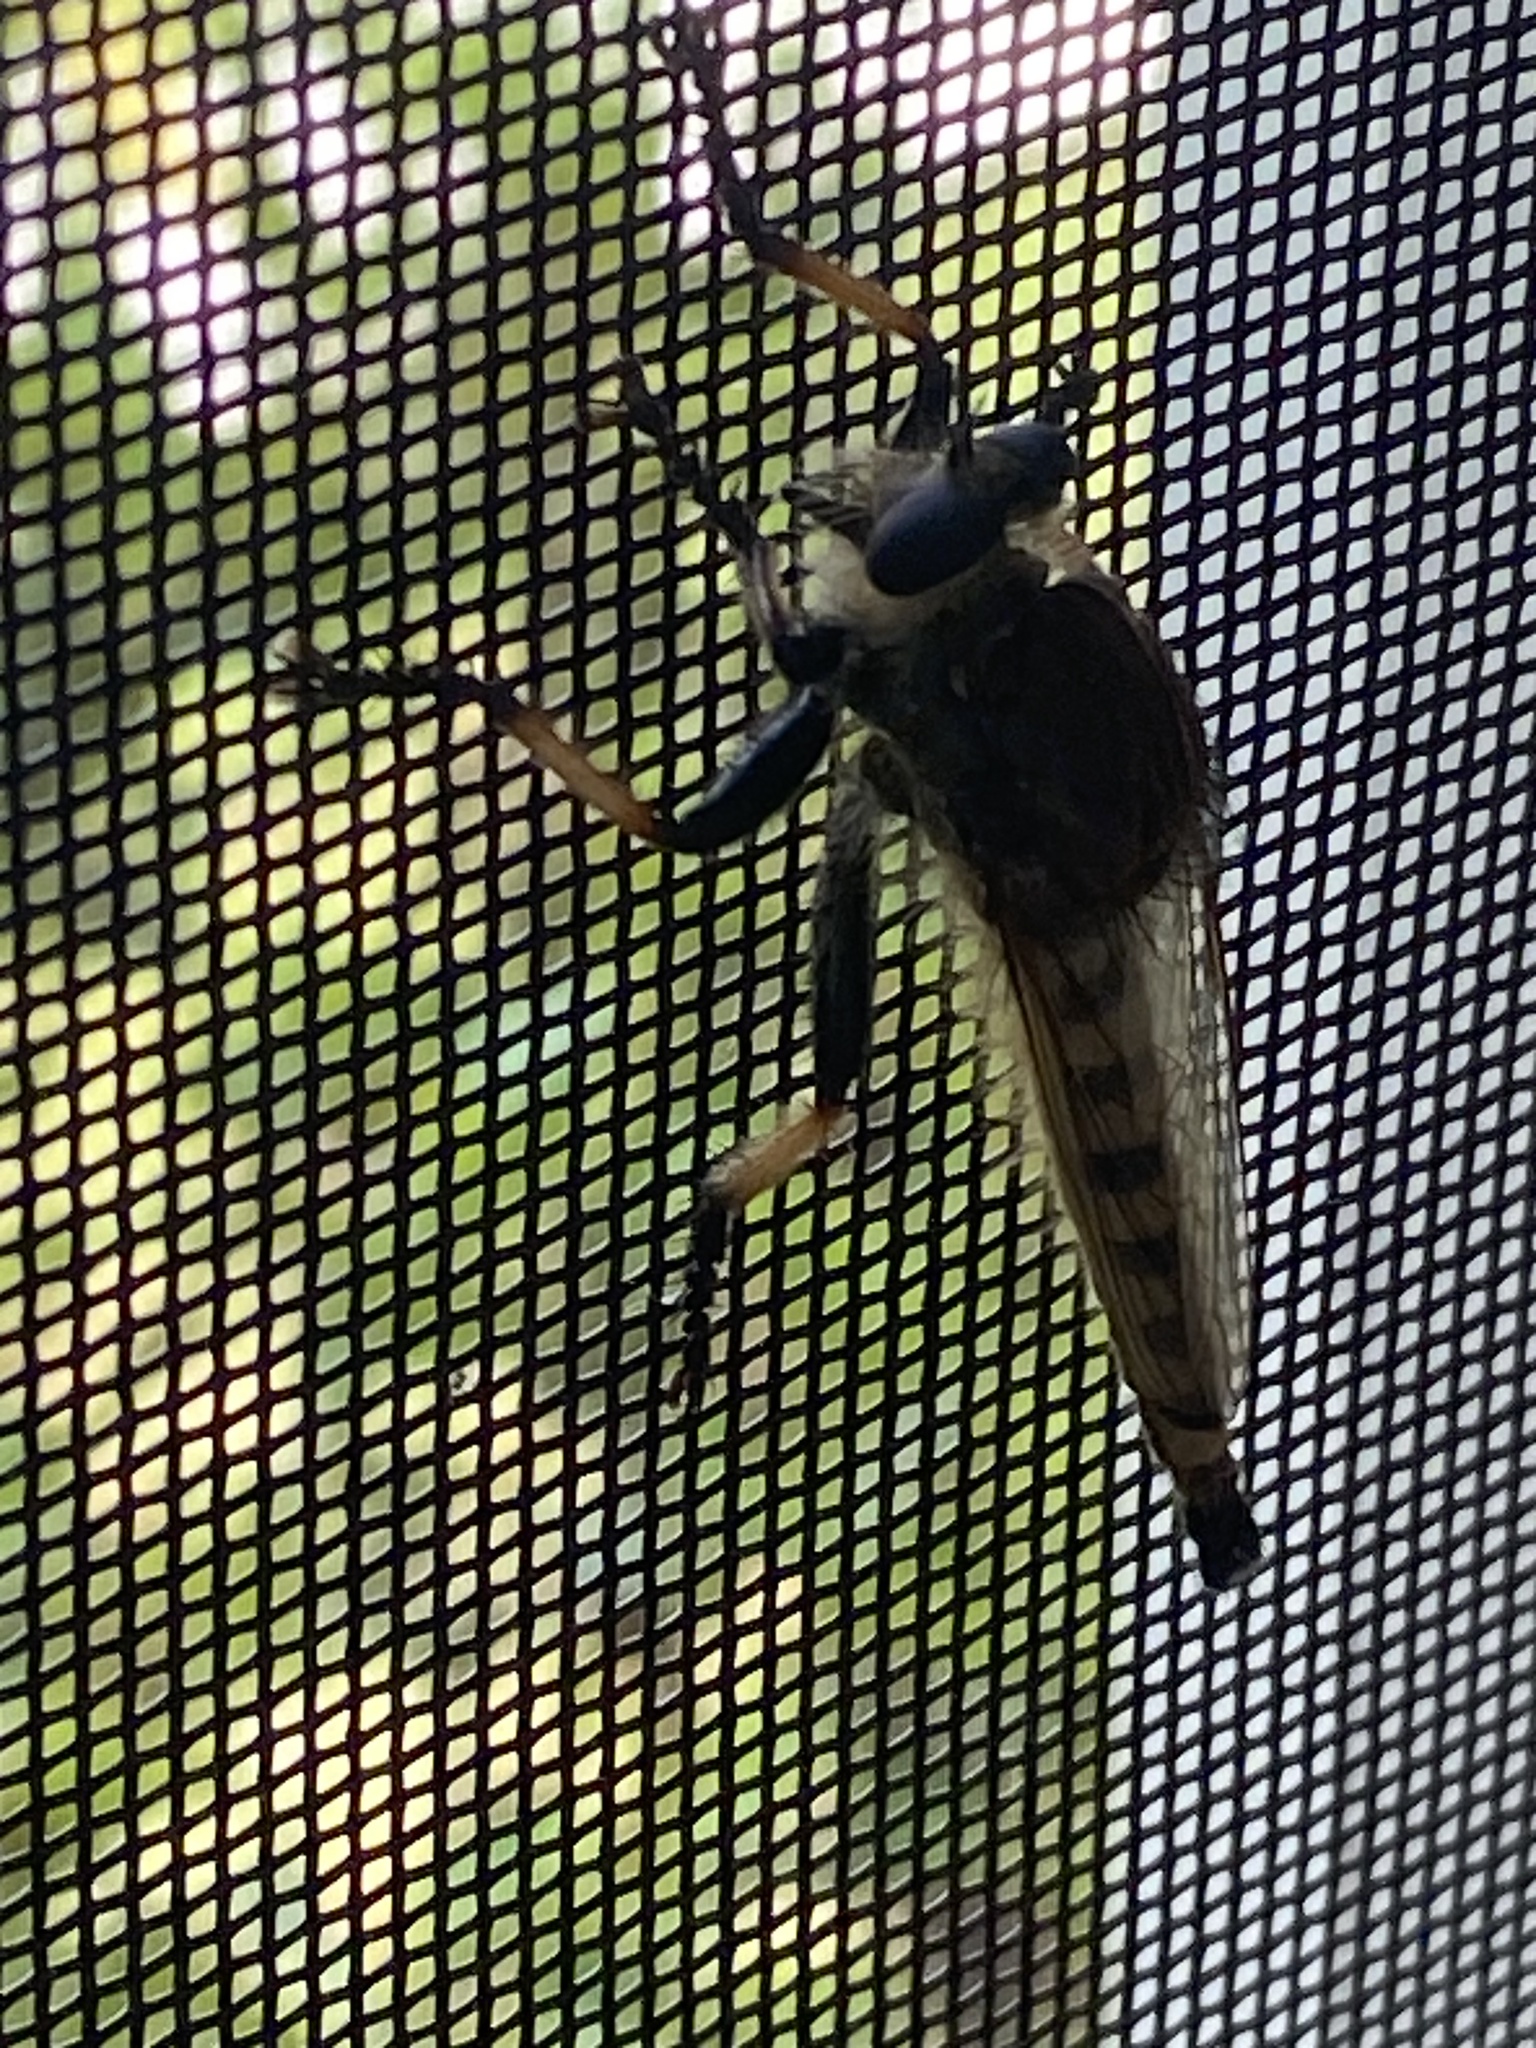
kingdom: Animalia
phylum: Arthropoda
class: Insecta
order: Diptera
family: Asilidae
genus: Promachus
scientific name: Promachus rufipes
